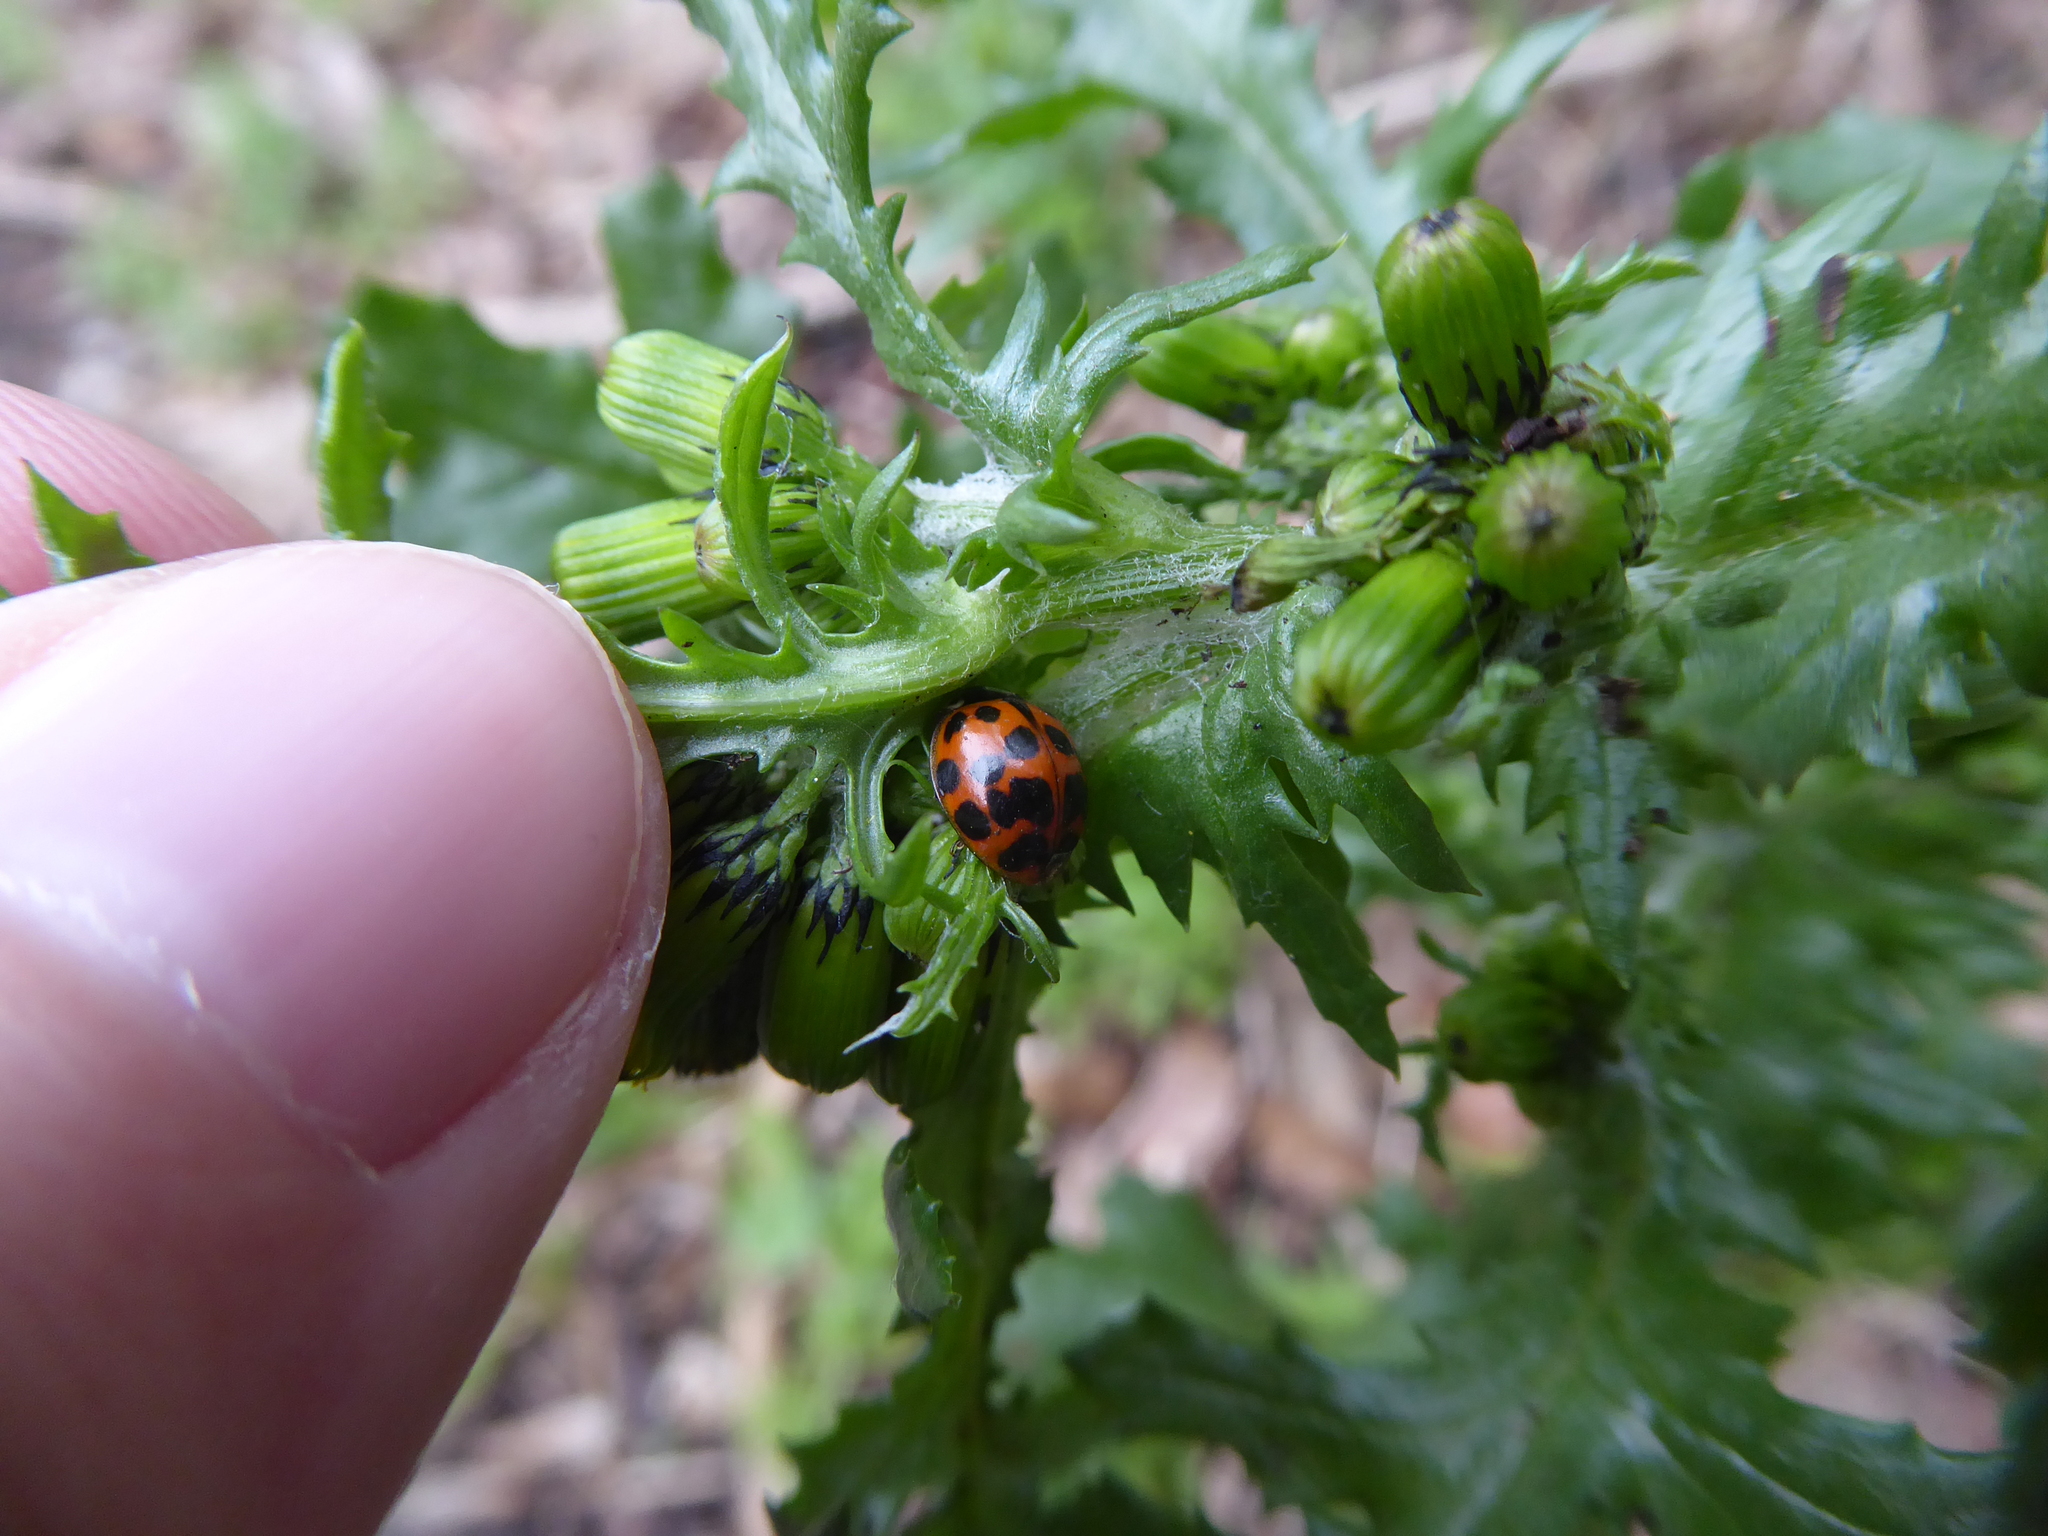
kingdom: Animalia
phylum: Arthropoda
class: Insecta
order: Coleoptera
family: Coccinellidae
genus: Harmonia
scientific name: Harmonia axyridis
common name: Harlequin ladybird
